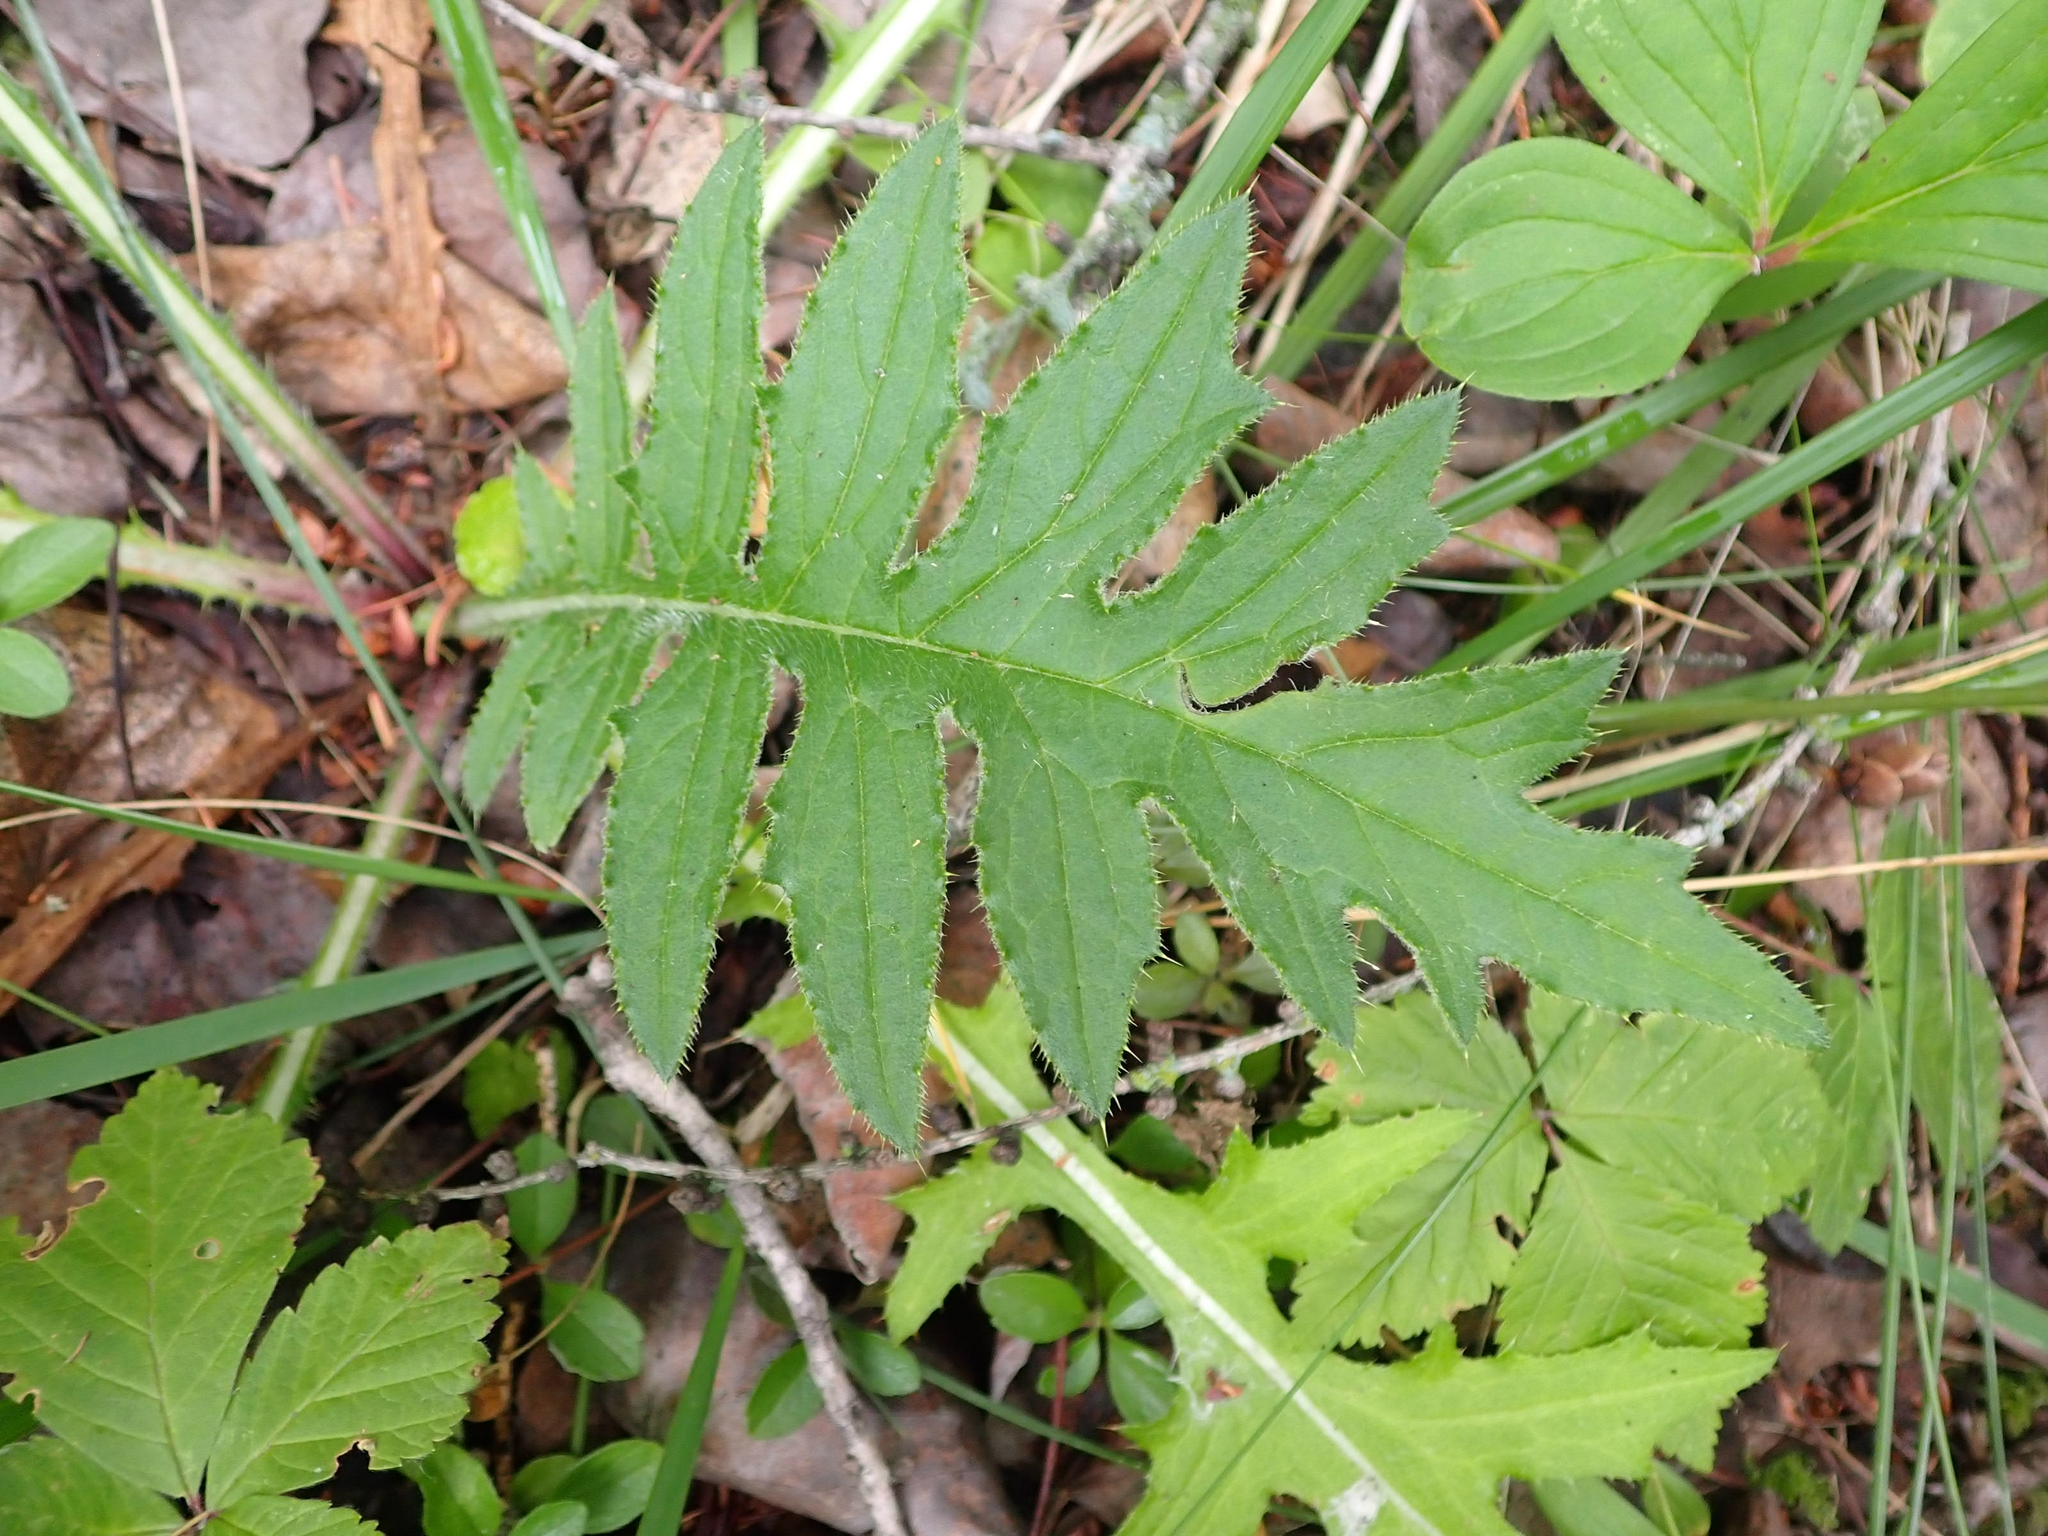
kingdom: Plantae
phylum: Tracheophyta
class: Magnoliopsida
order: Asterales
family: Asteraceae
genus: Cirsium
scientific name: Cirsium muticum
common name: Dunce-nettle
